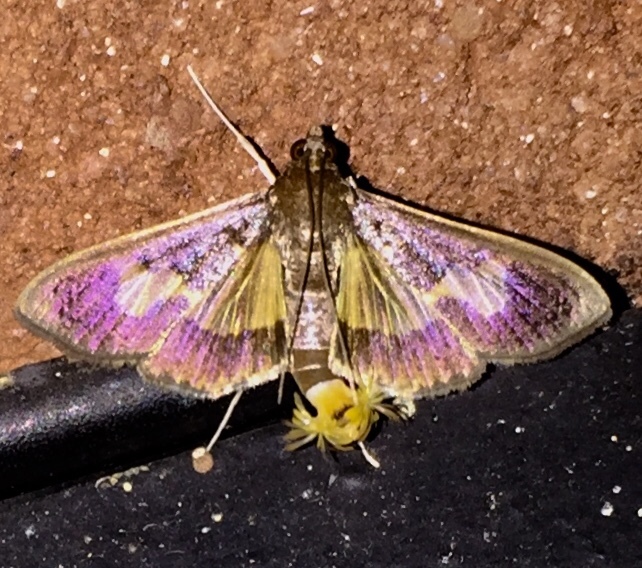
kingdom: Animalia
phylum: Arthropoda
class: Insecta
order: Lepidoptera
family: Crambidae
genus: Cryptographis
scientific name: Cryptographis nitidalis
